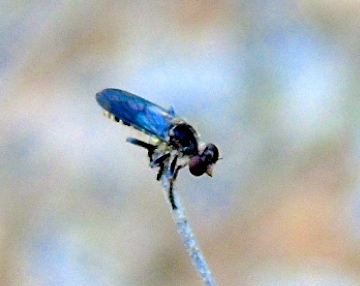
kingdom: Animalia
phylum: Arthropoda
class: Insecta
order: Diptera
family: Asilidae
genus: Heteropogon
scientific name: Heteropogon
